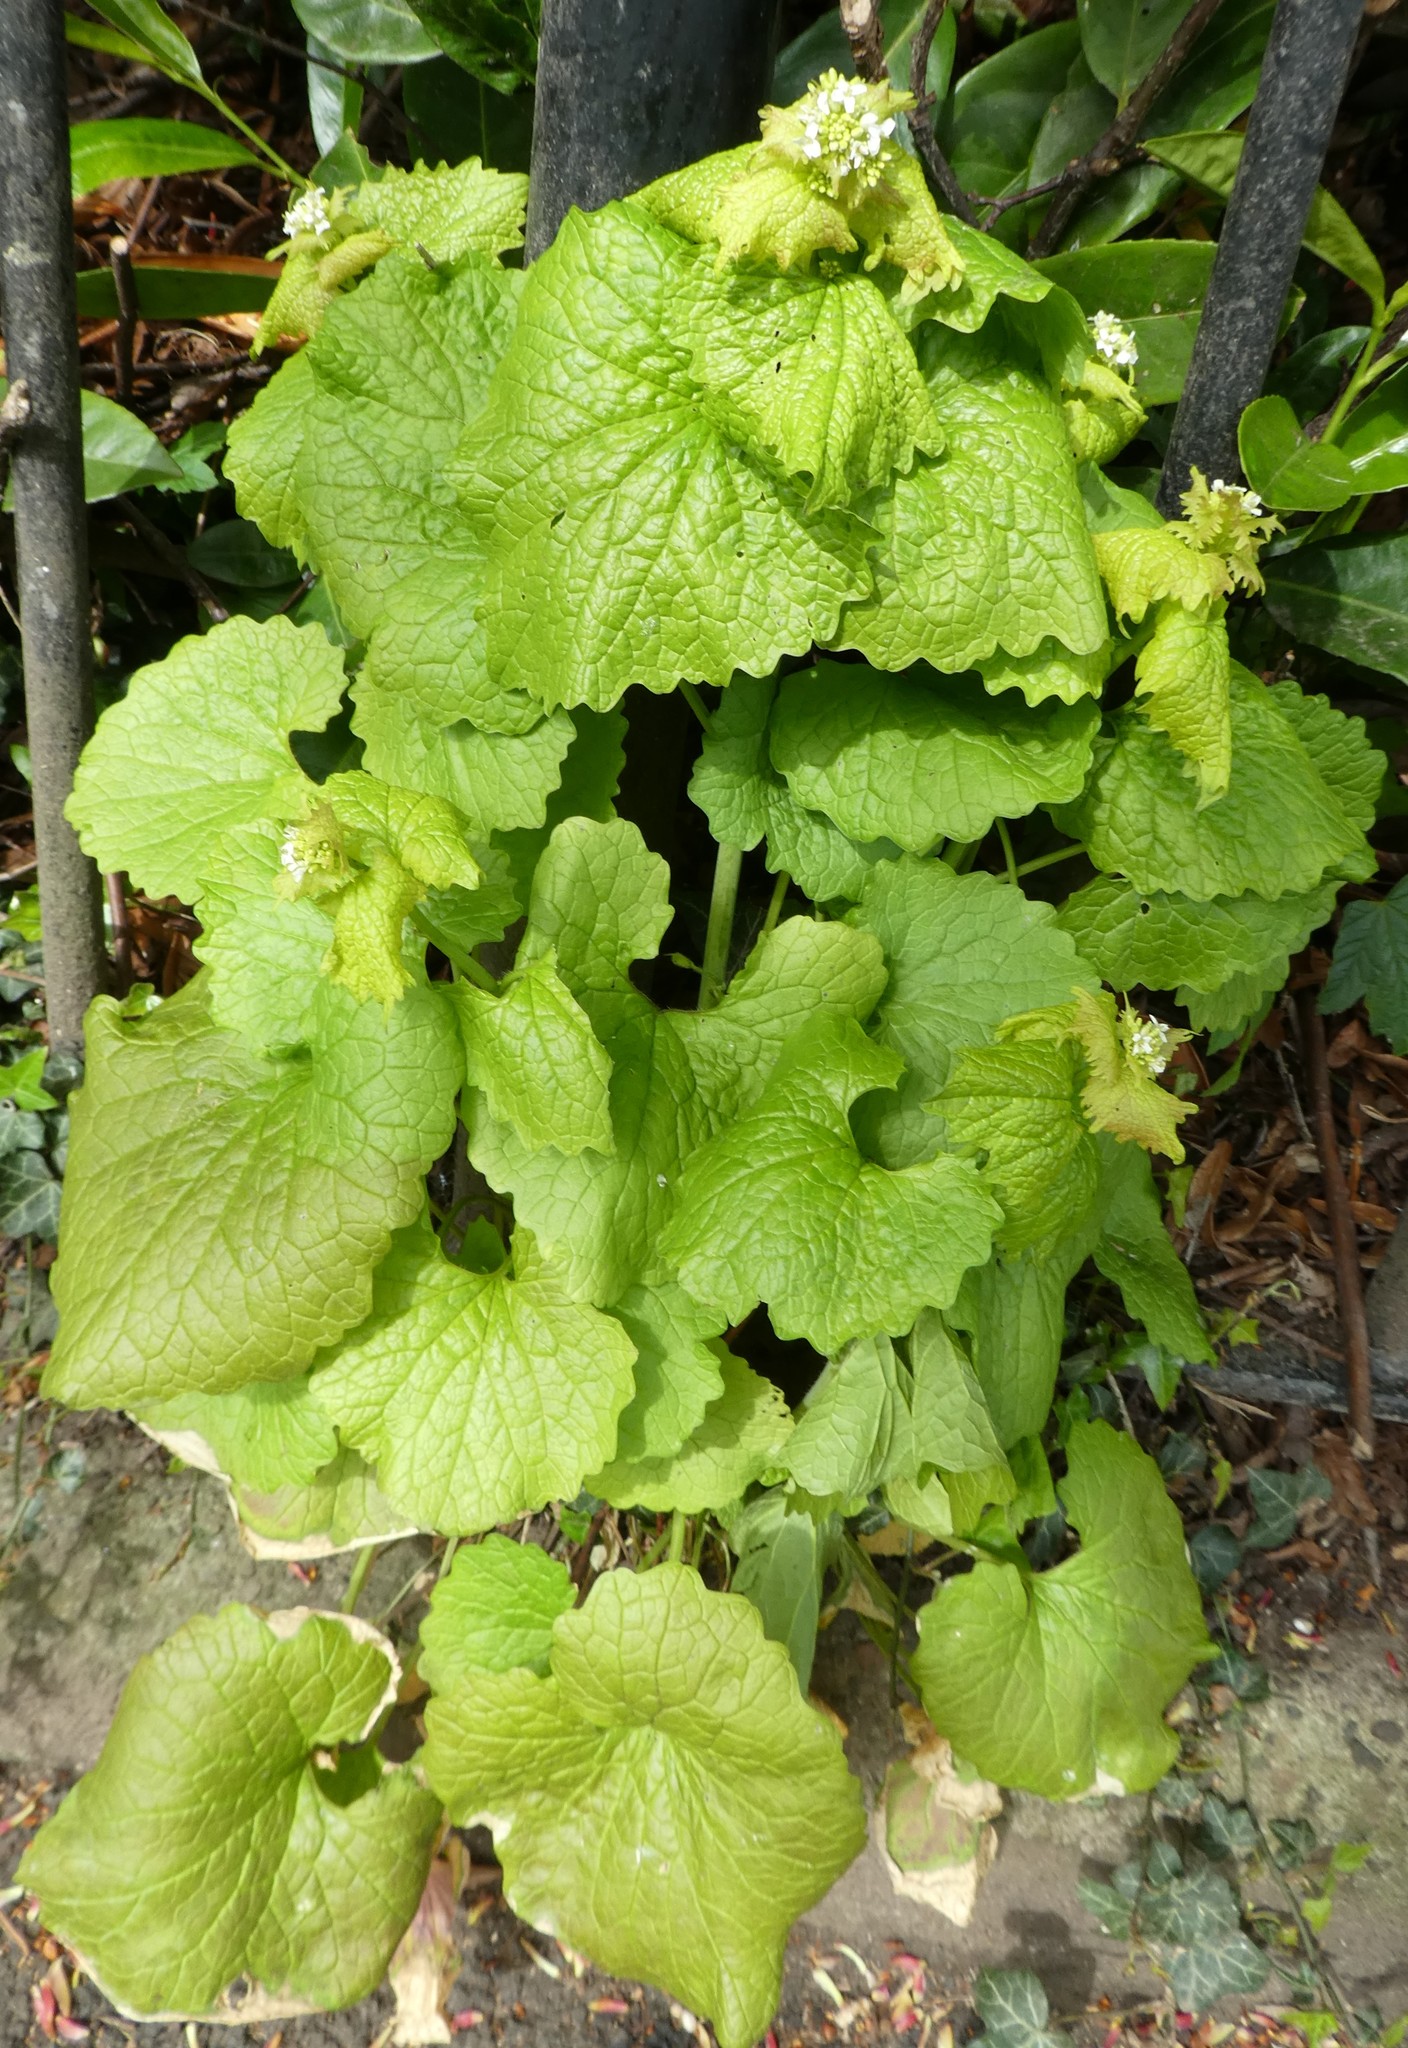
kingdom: Plantae
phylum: Tracheophyta
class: Magnoliopsida
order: Brassicales
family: Brassicaceae
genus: Alliaria
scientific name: Alliaria petiolata
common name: Garlic mustard
